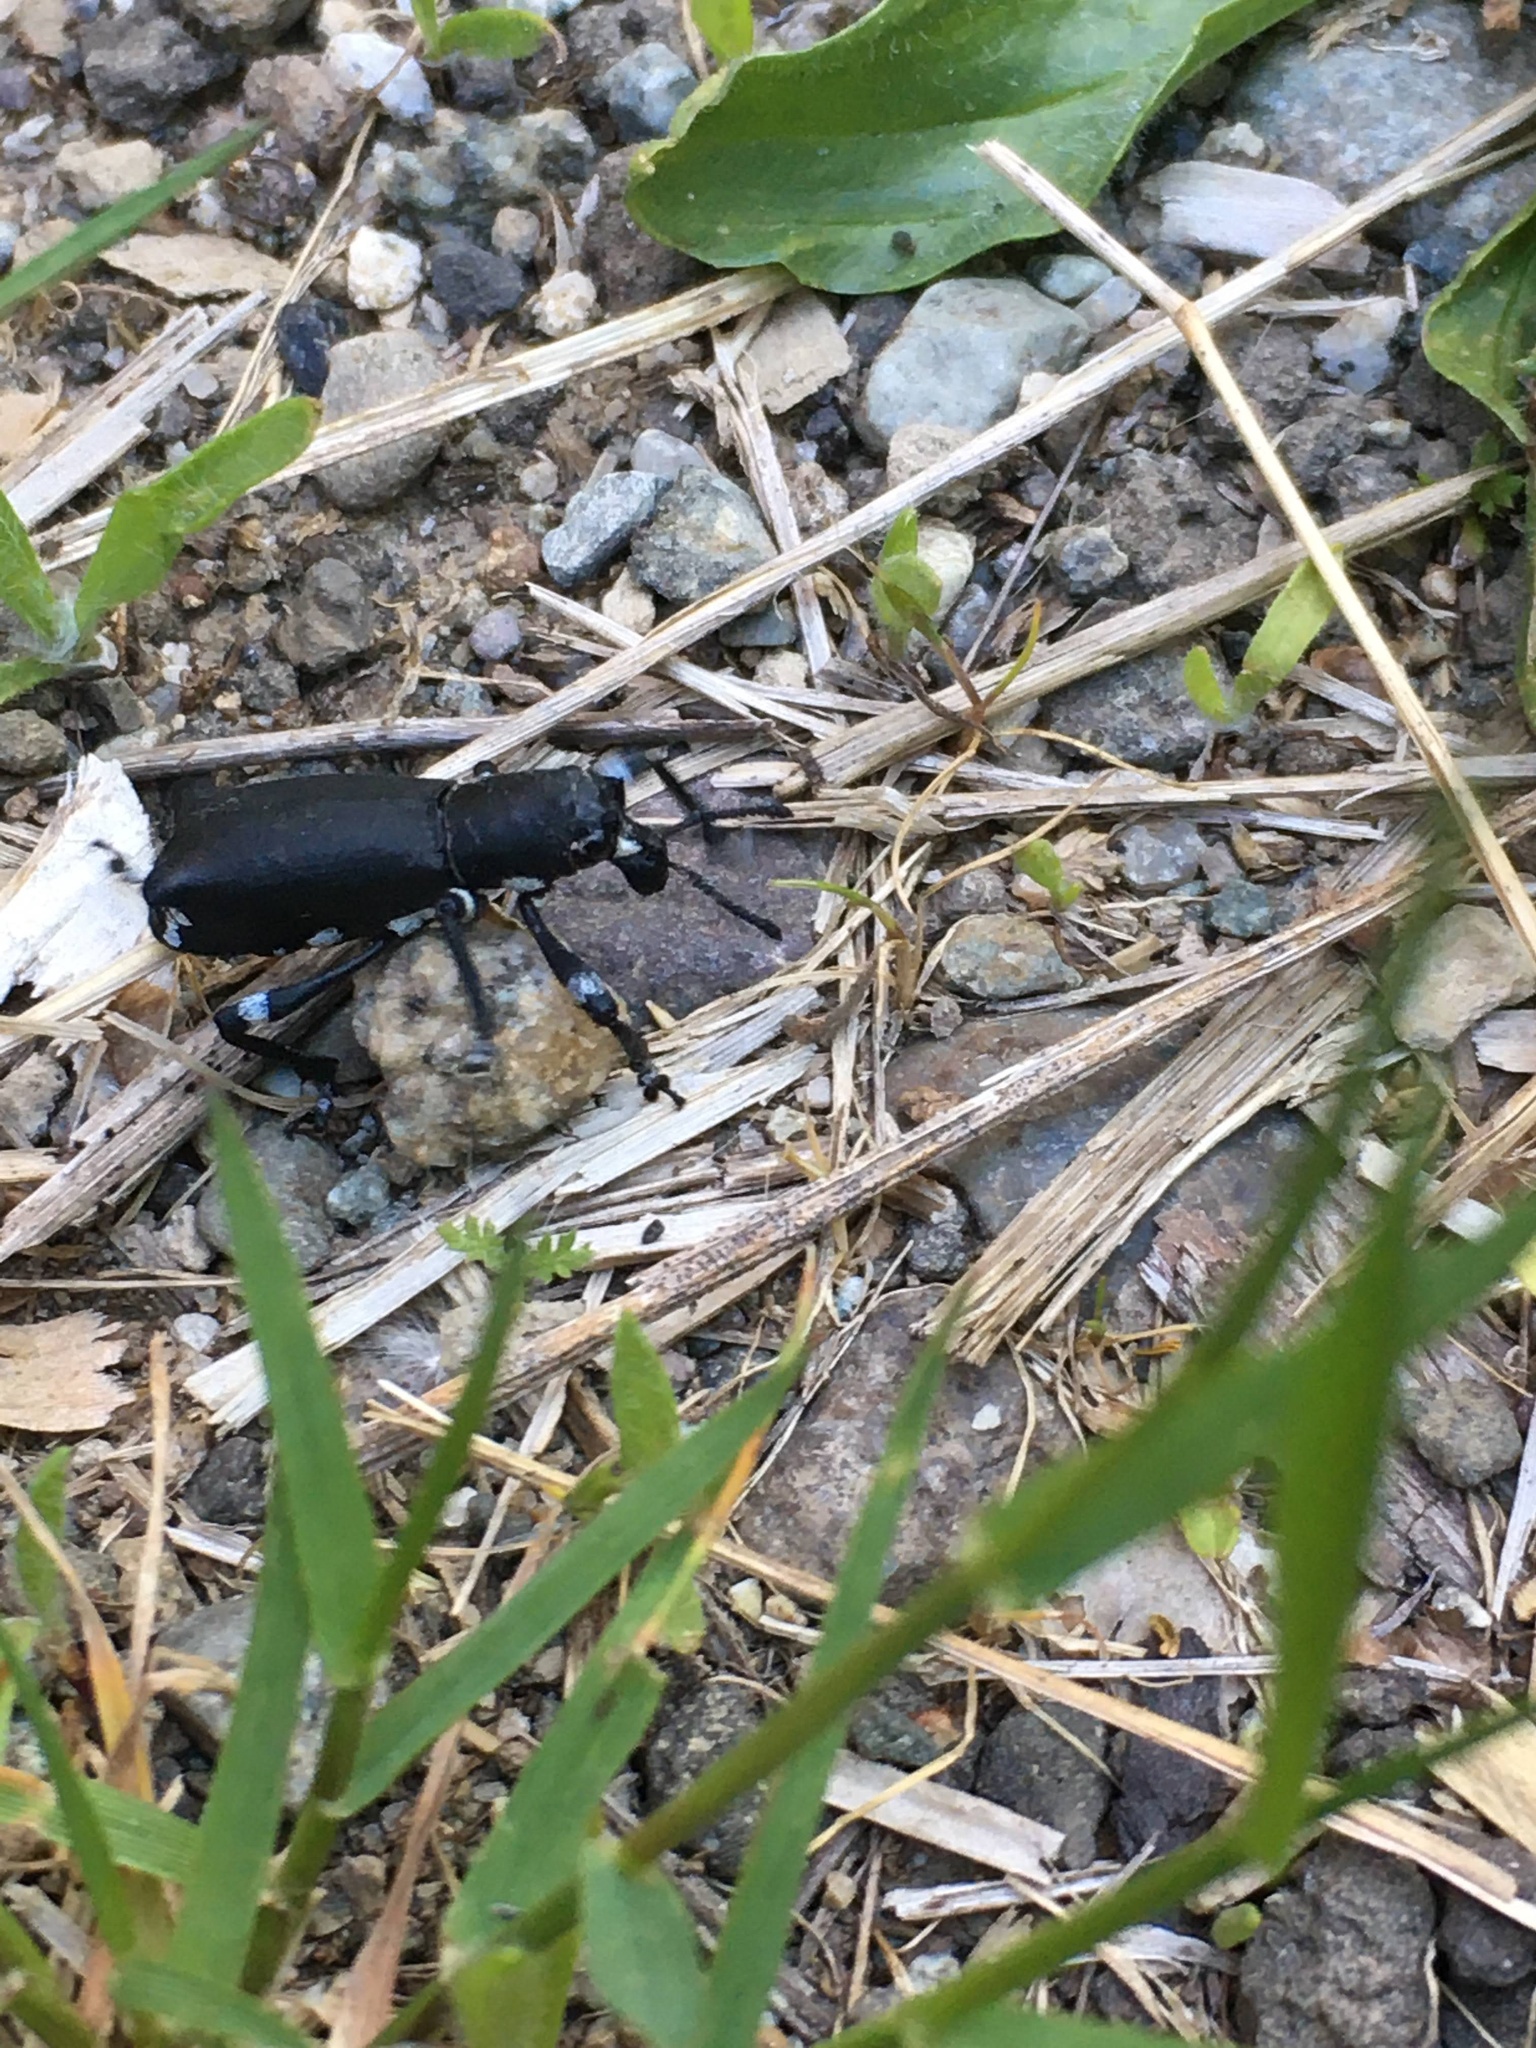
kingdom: Animalia
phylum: Arthropoda
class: Insecta
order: Coleoptera
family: Curculionidae
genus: Aegorhinus
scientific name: Aegorhinus
